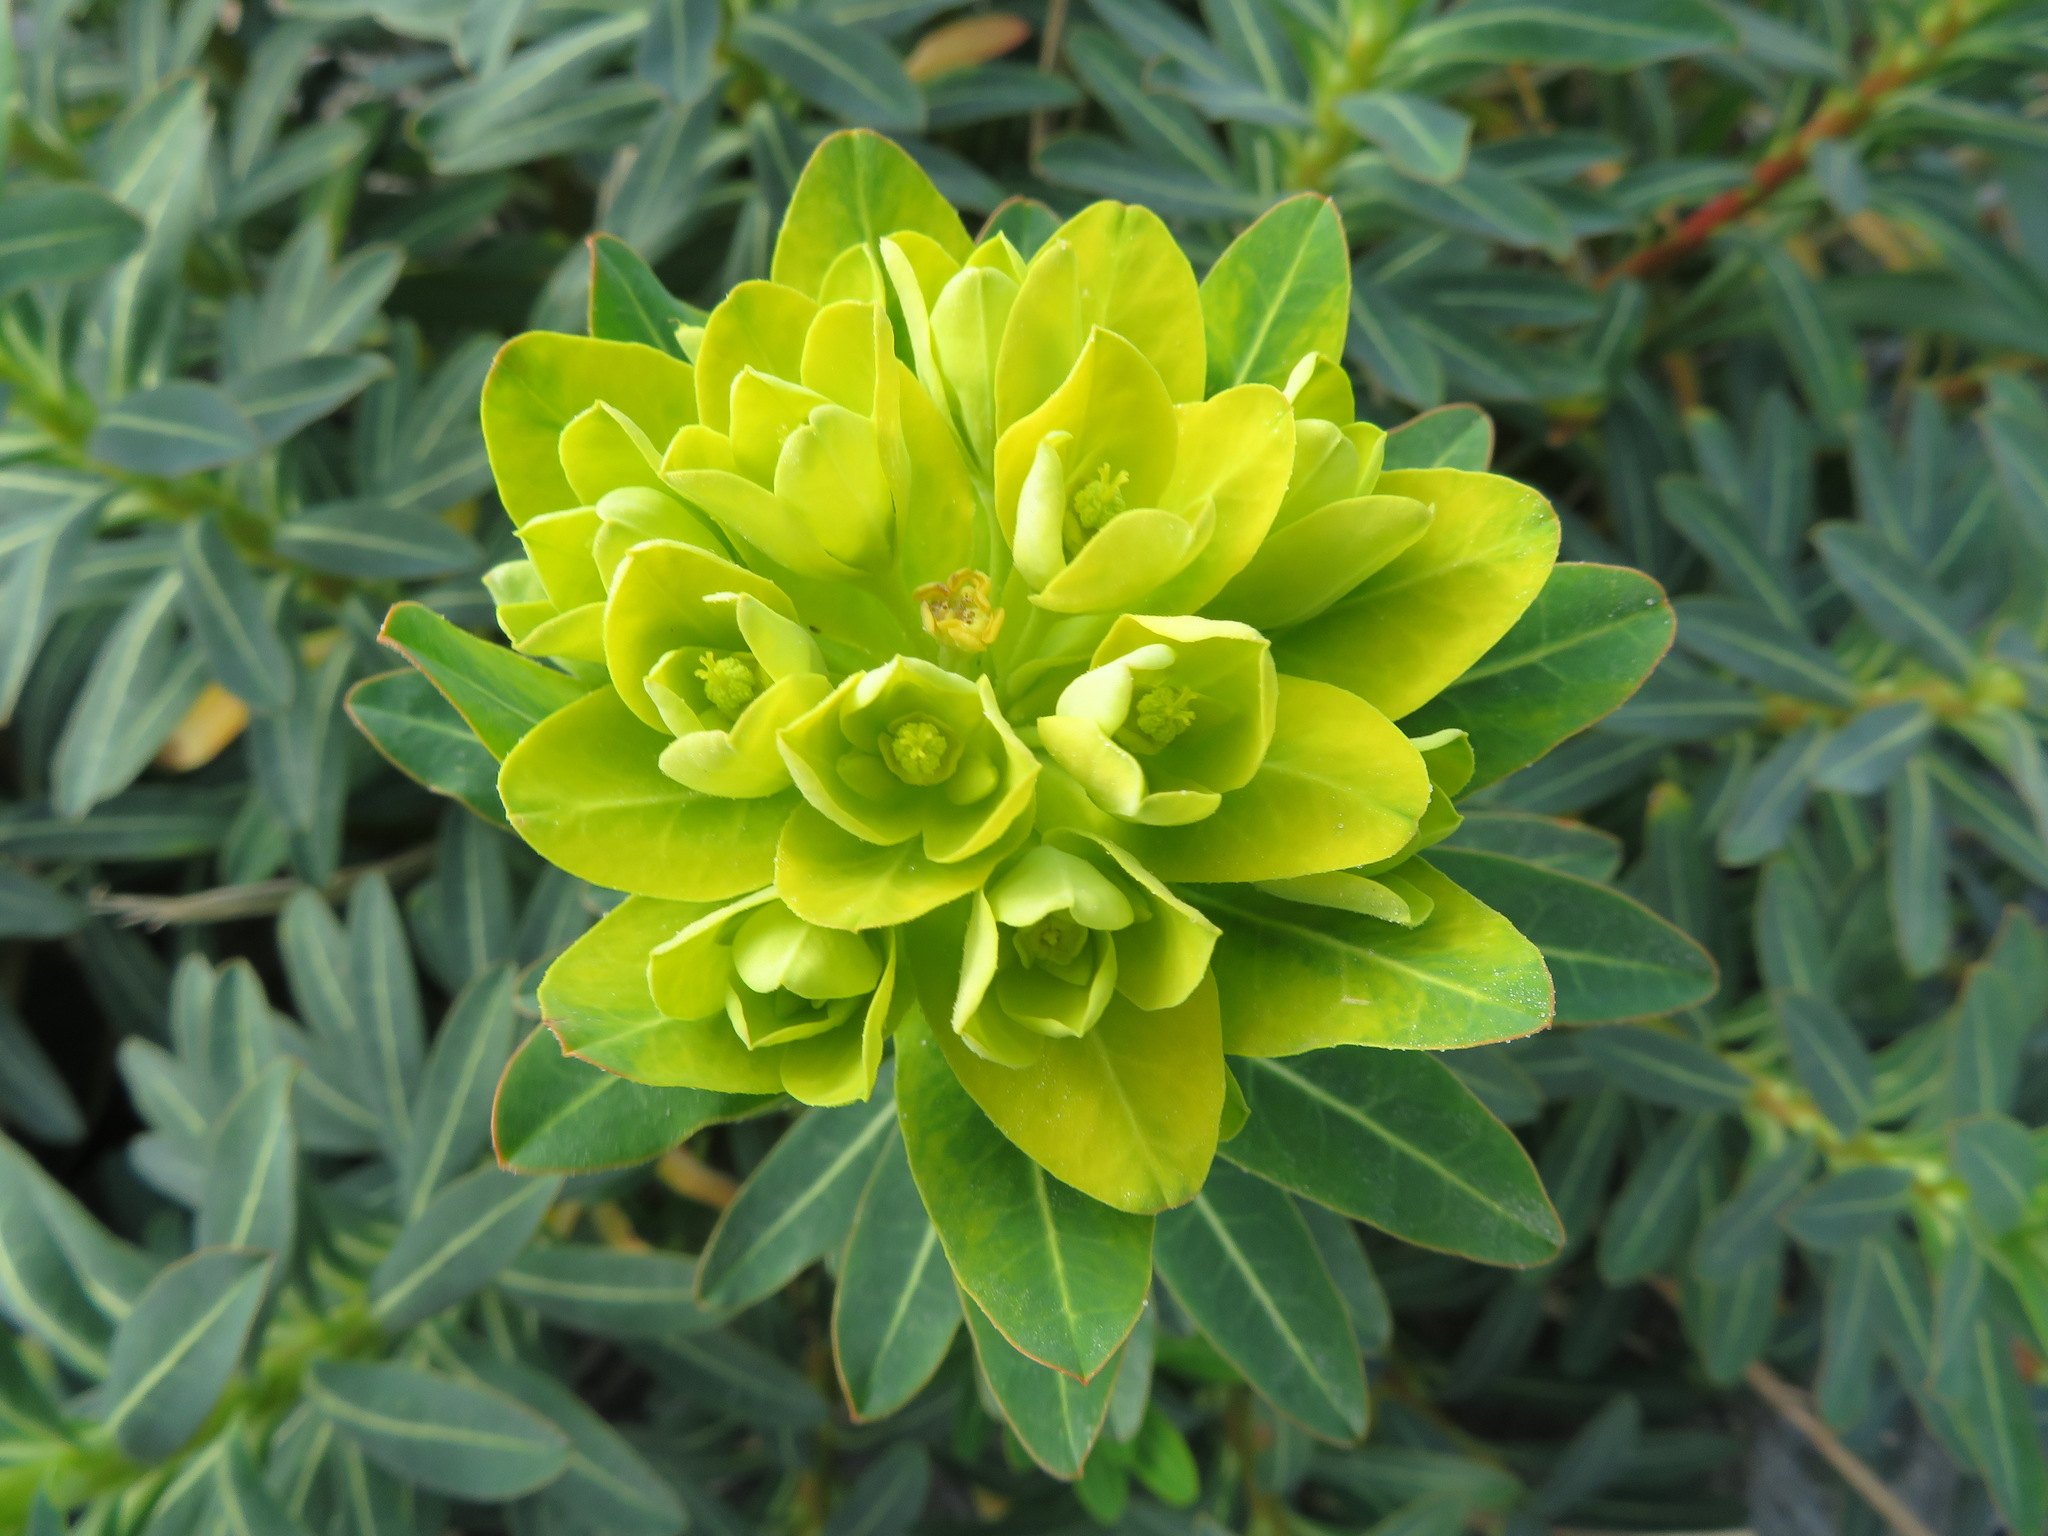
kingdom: Plantae
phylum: Tracheophyta
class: Magnoliopsida
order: Malpighiales
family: Euphorbiaceae
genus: Euphorbia
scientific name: Euphorbia jolkinii
